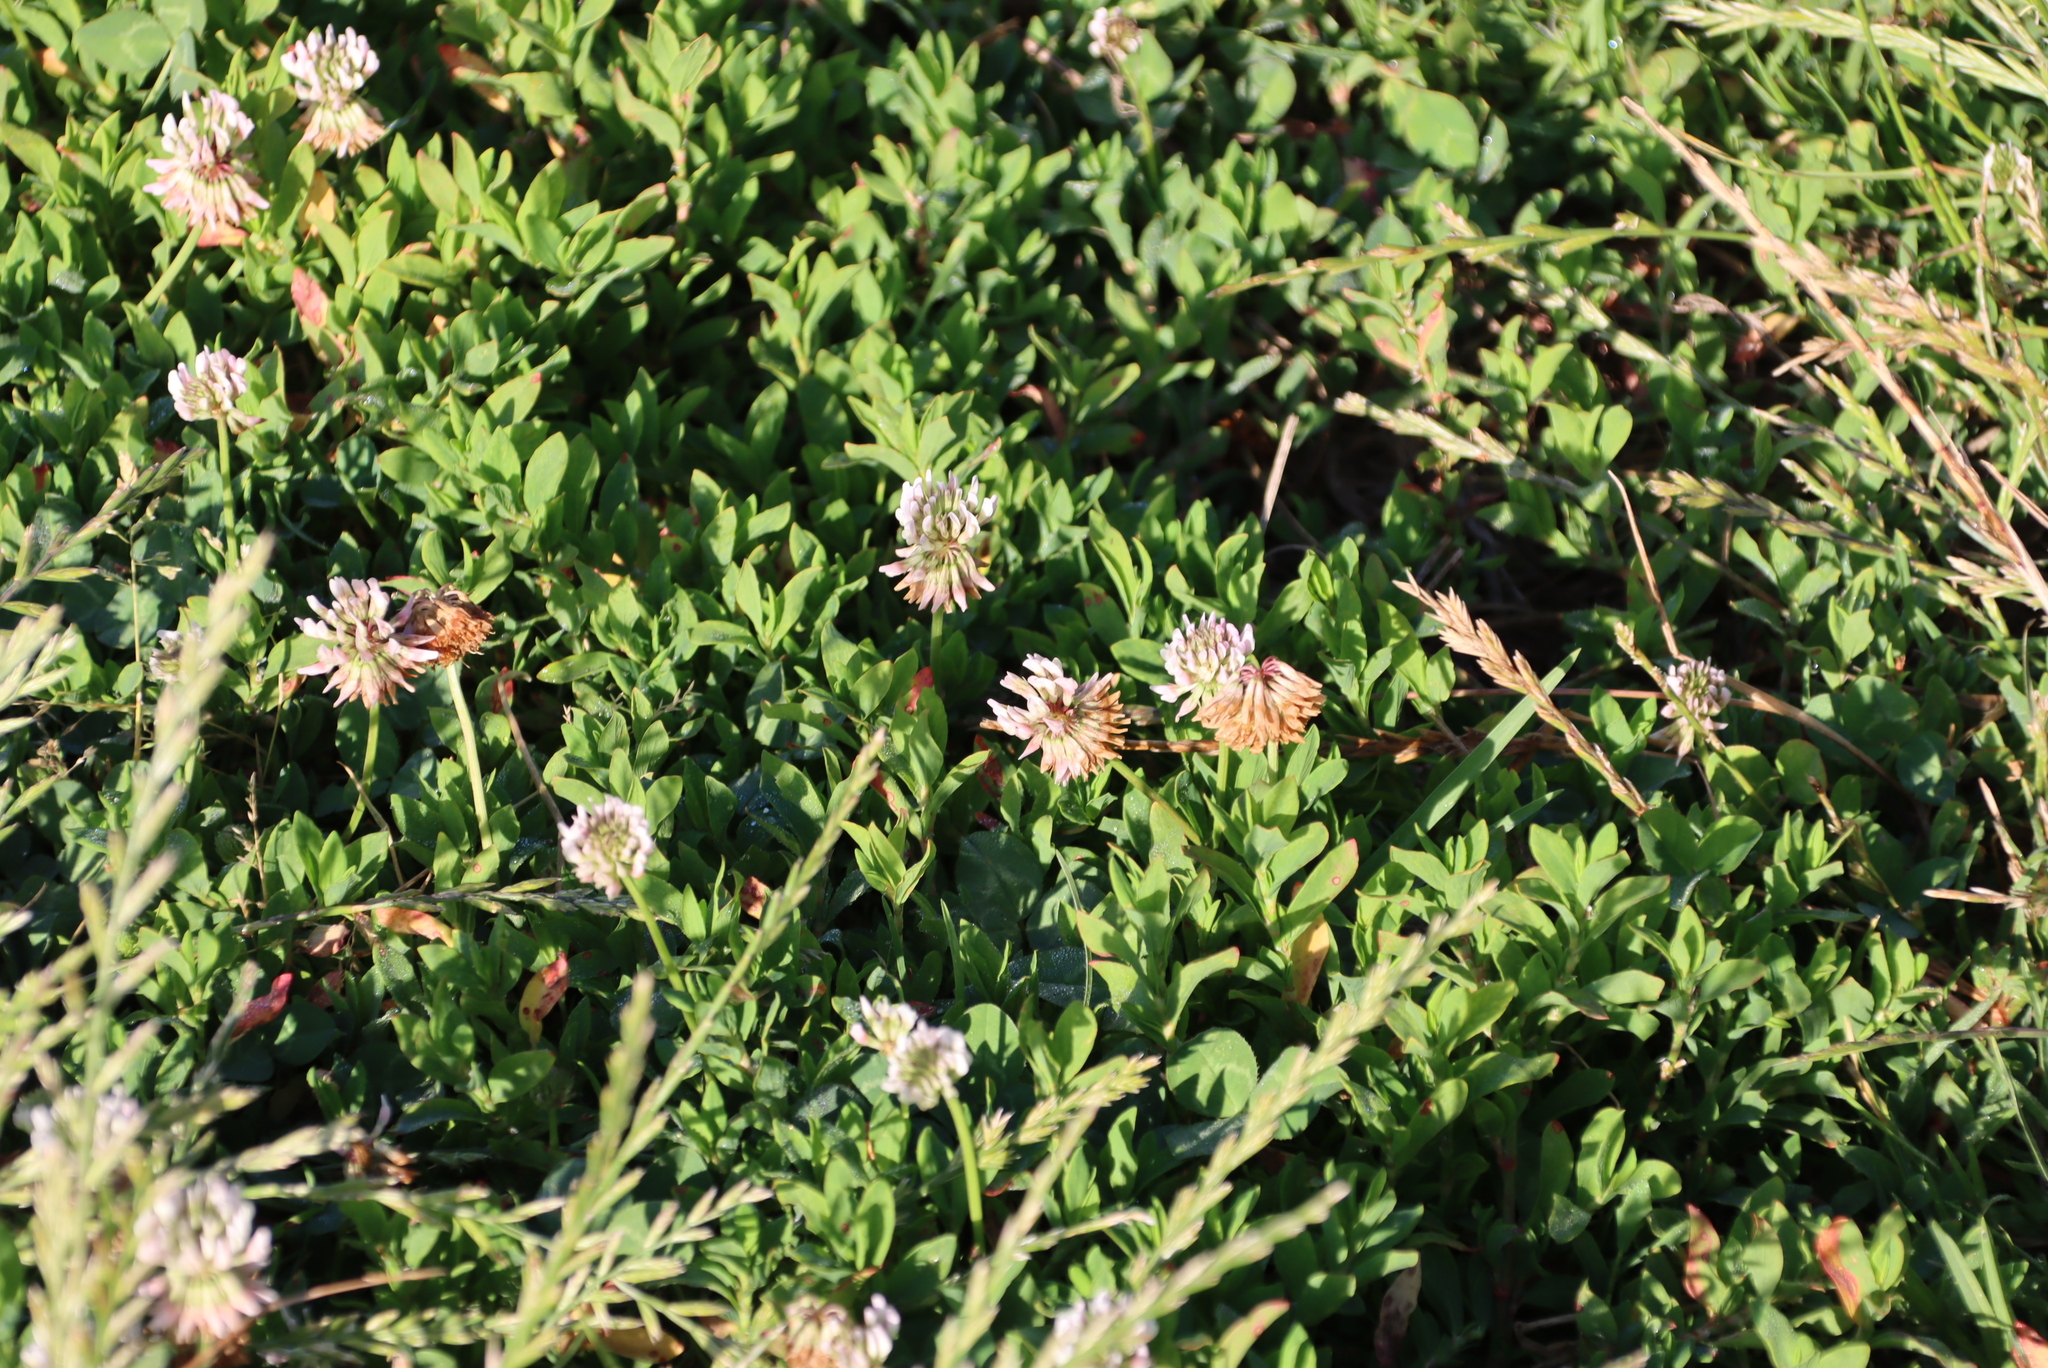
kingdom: Plantae
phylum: Tracheophyta
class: Magnoliopsida
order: Fabales
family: Fabaceae
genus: Trifolium
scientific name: Trifolium repens
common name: White clover
